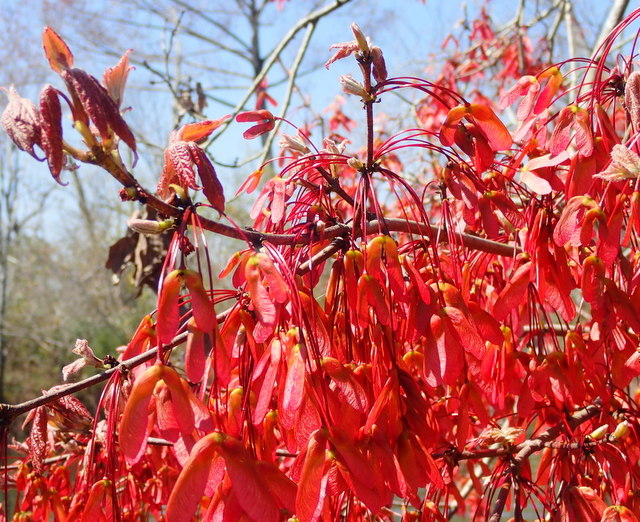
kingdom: Plantae
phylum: Tracheophyta
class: Magnoliopsida
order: Sapindales
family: Sapindaceae
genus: Acer
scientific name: Acer rubrum
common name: Red maple
